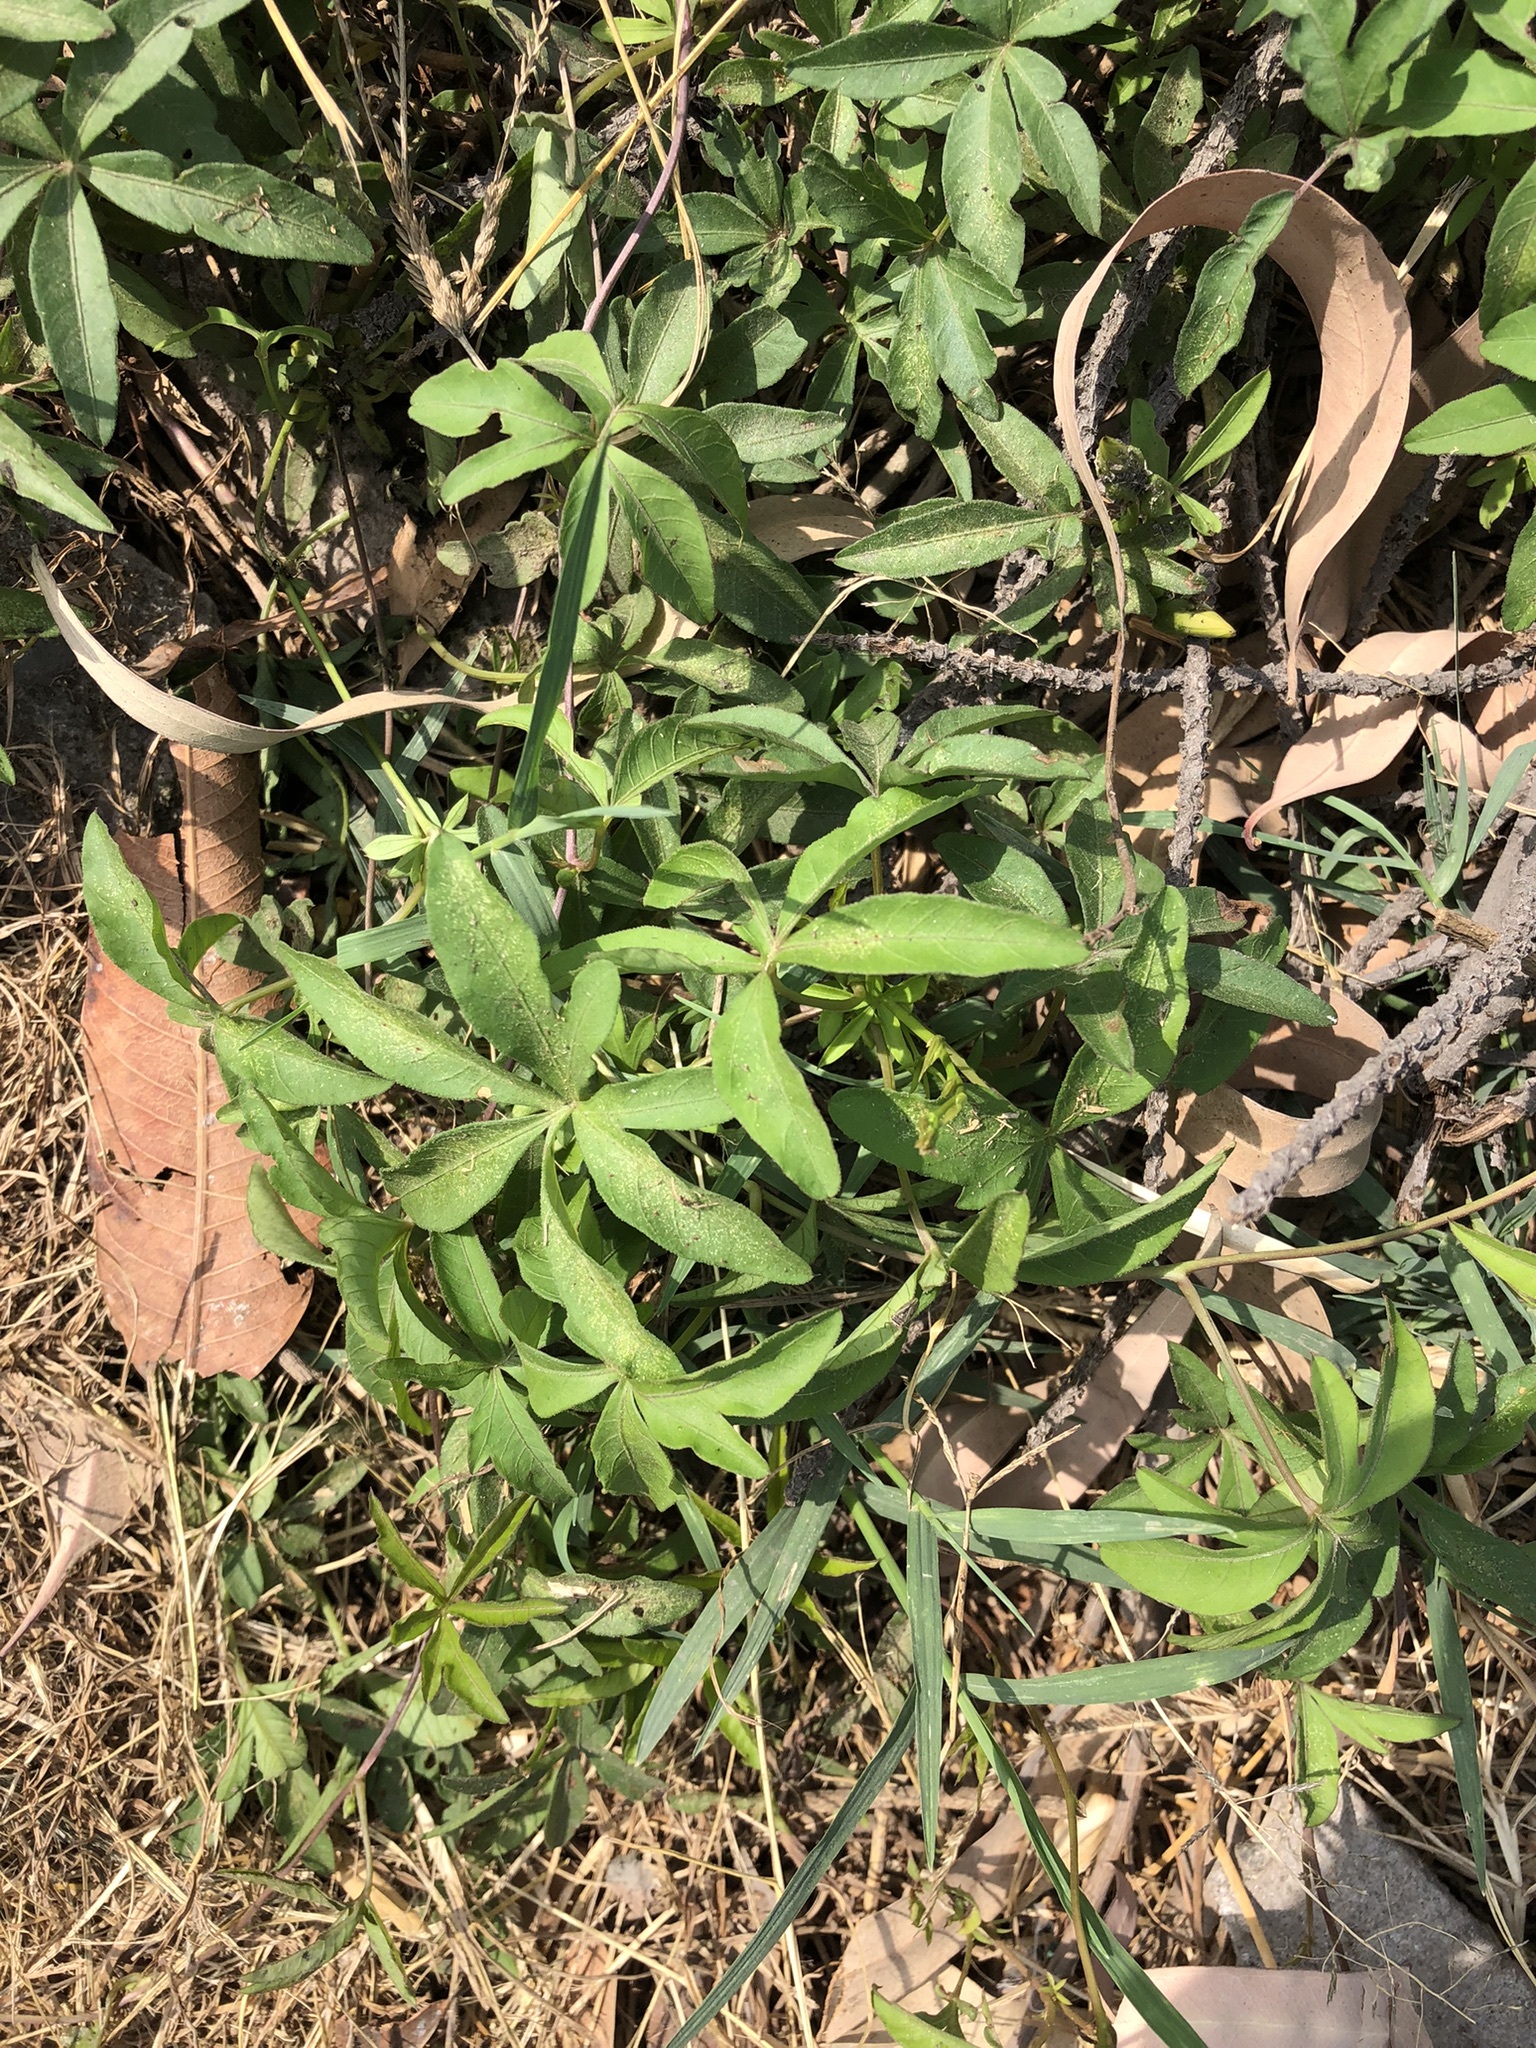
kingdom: Plantae
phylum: Tracheophyta
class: Magnoliopsida
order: Fabales
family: Fabaceae
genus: Desmodium
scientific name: Desmodium uncinatum
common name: Silverleaf desmodium
